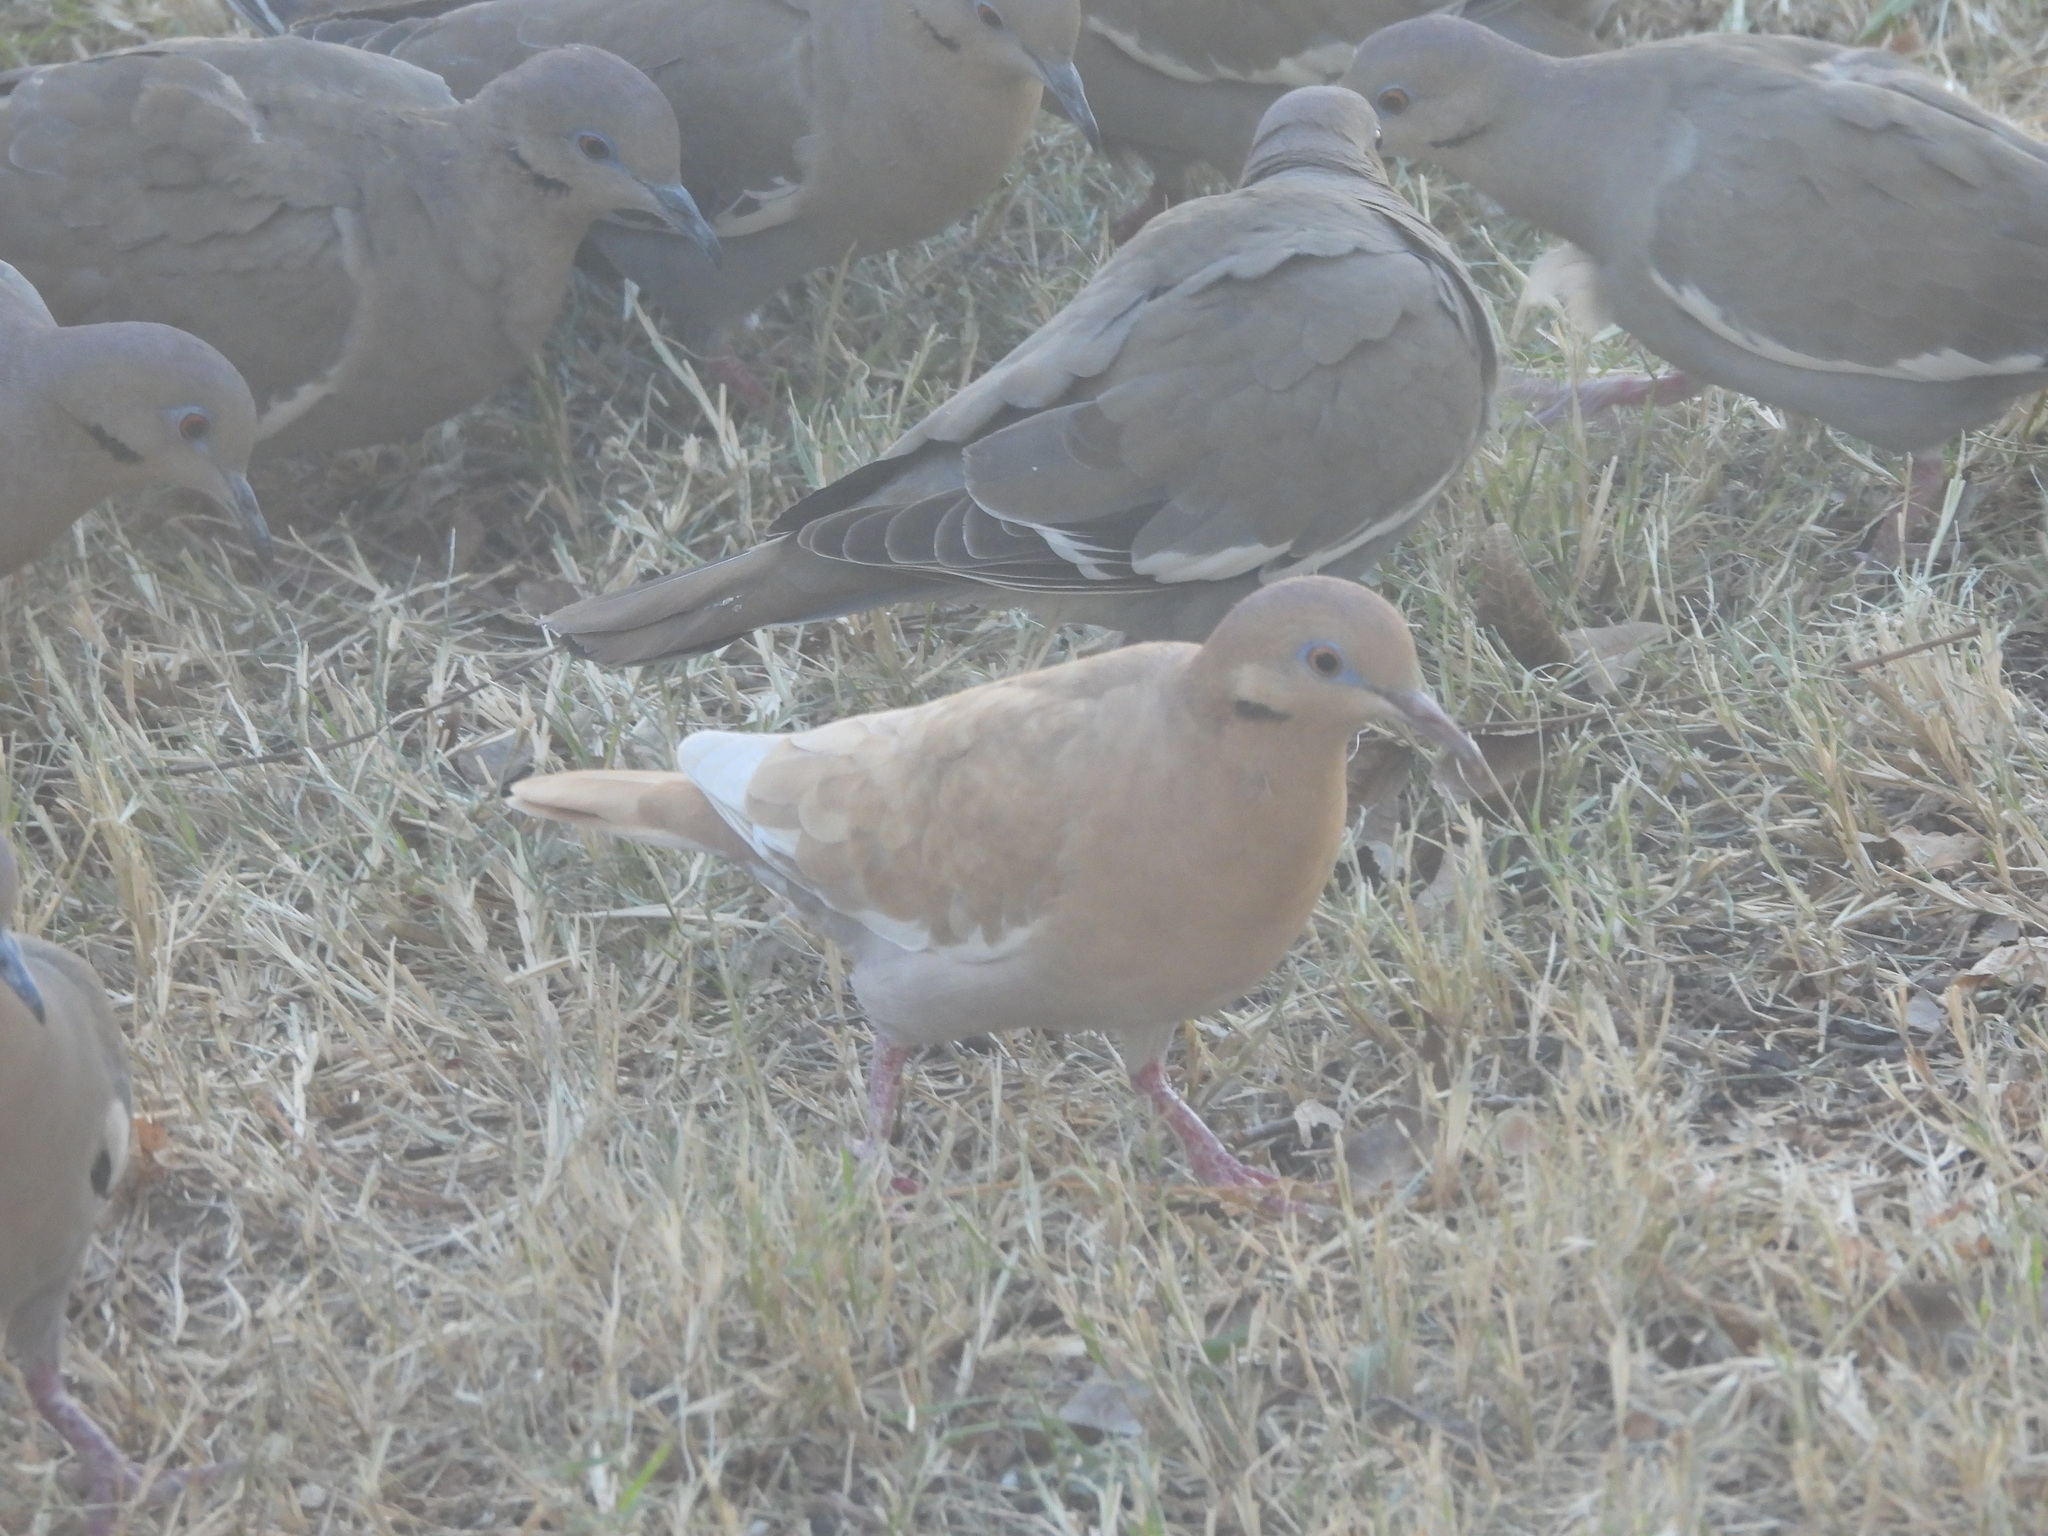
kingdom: Animalia
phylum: Chordata
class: Aves
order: Columbiformes
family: Columbidae
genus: Zenaida
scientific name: Zenaida asiatica
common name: White-winged dove
